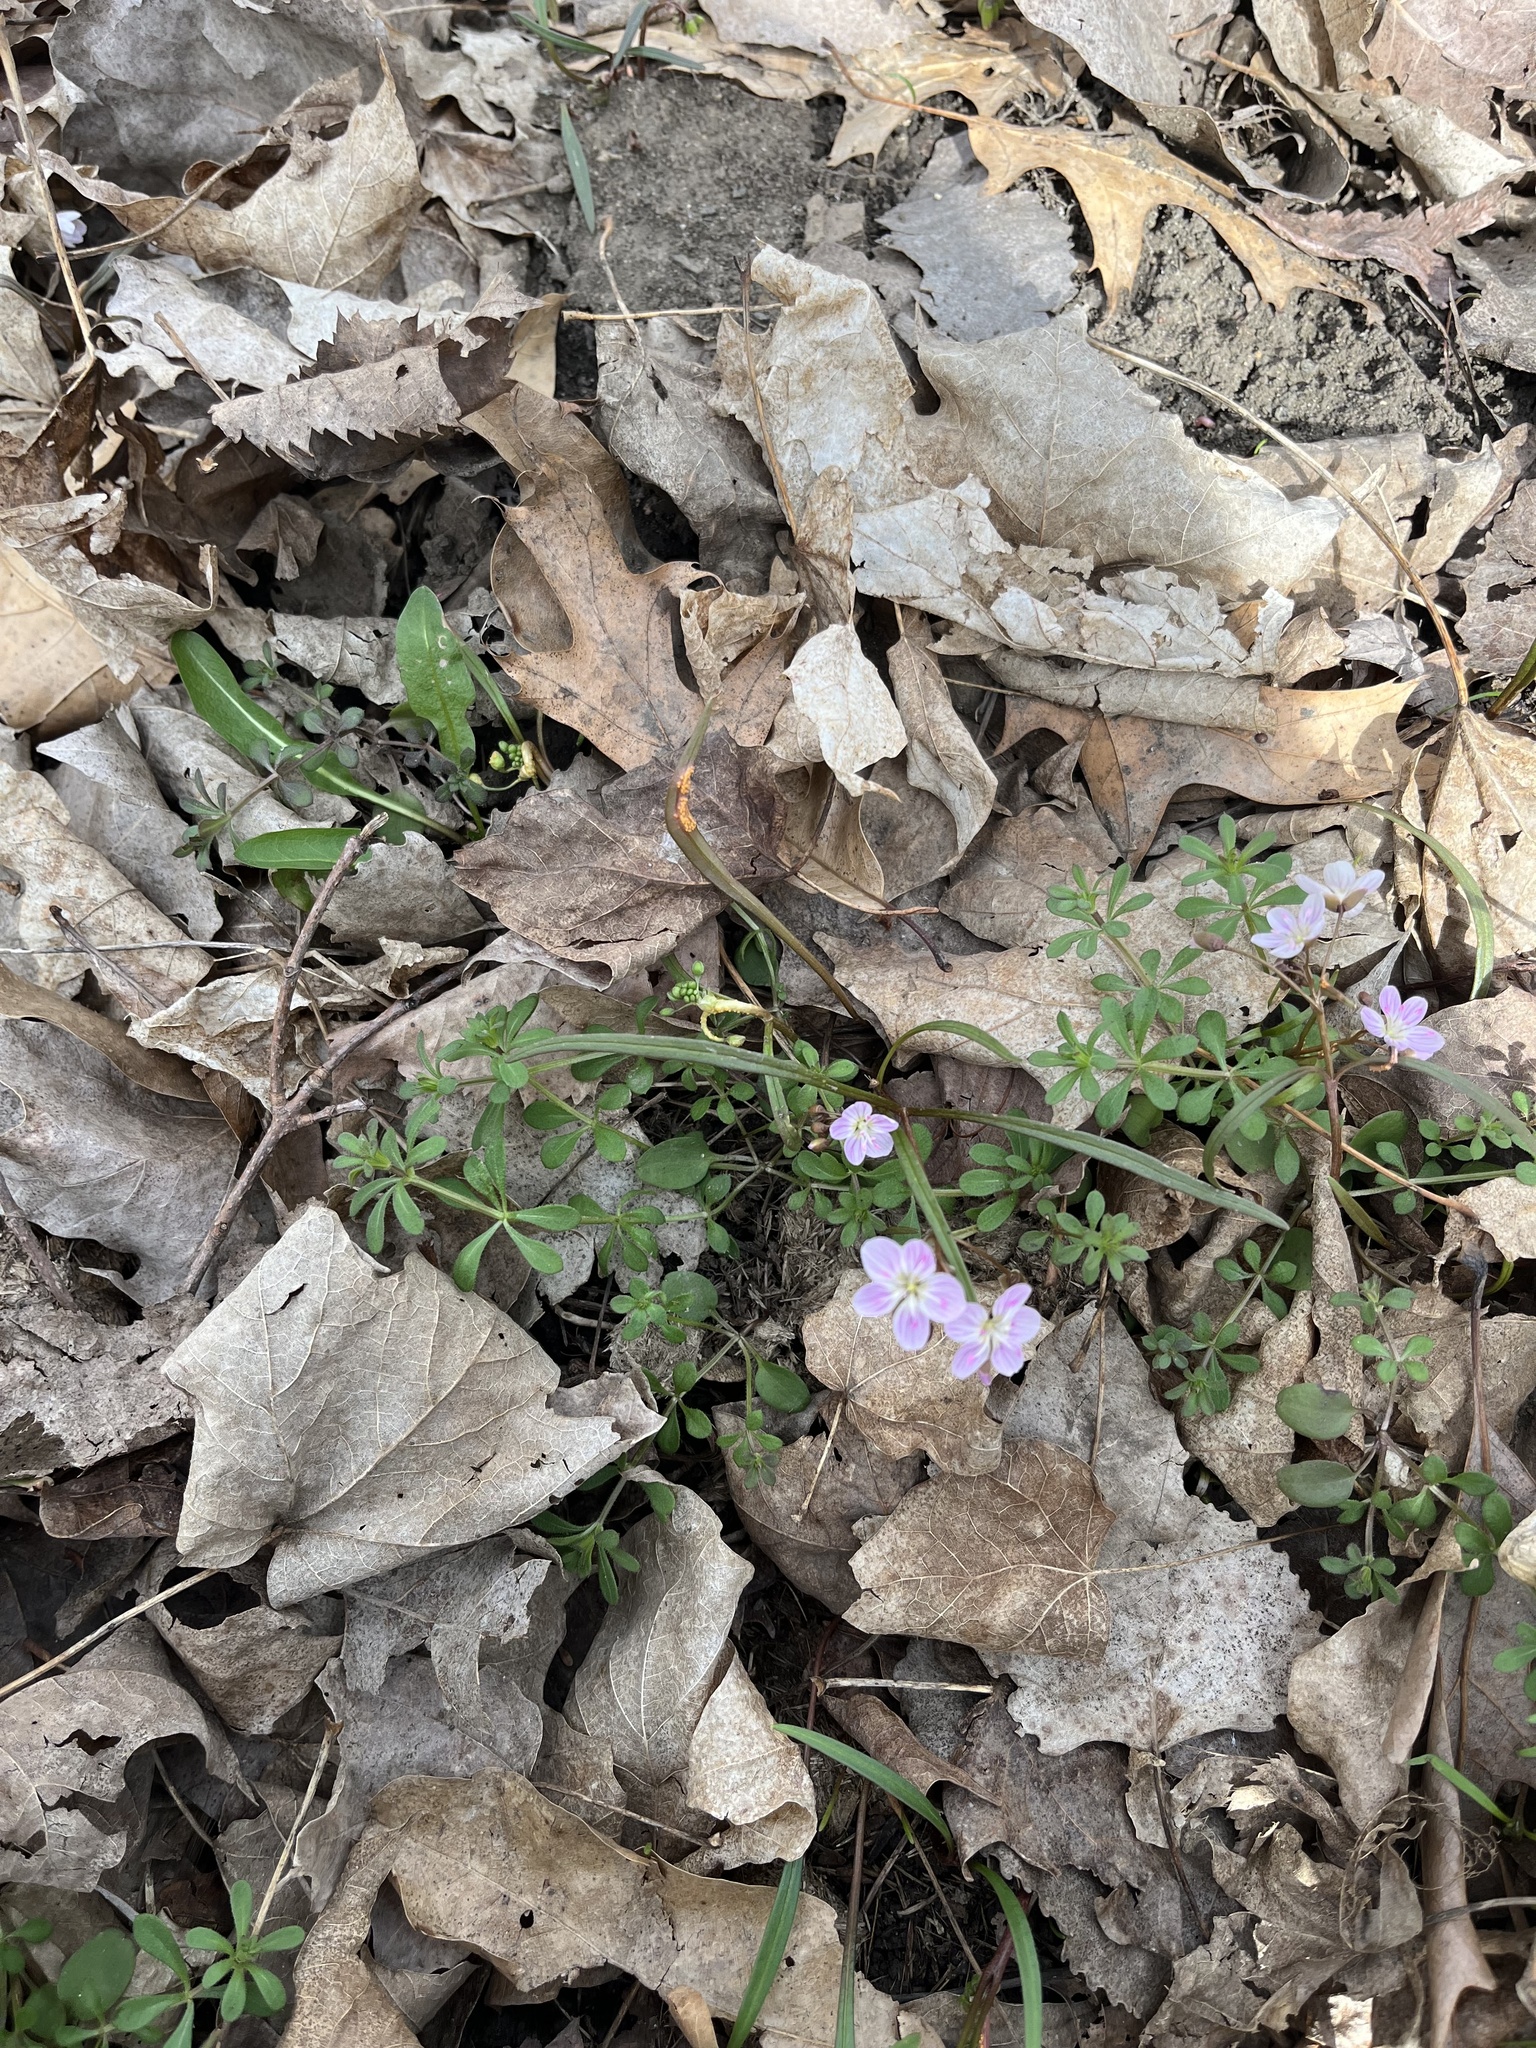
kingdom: Plantae
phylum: Tracheophyta
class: Magnoliopsida
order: Caryophyllales
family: Montiaceae
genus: Claytonia
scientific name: Claytonia virginica
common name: Virginia springbeauty
